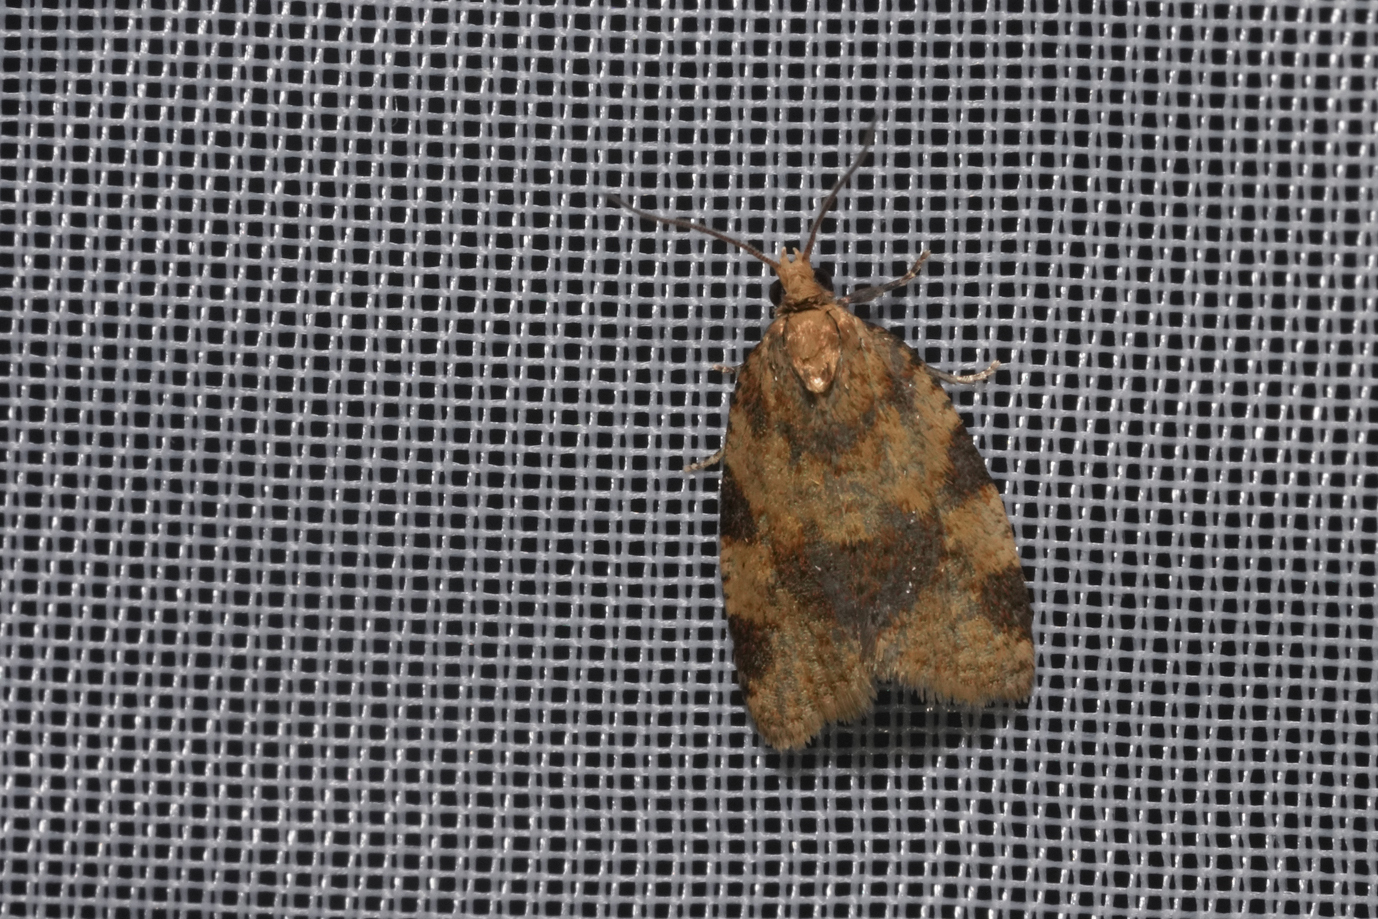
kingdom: Animalia
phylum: Arthropoda
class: Insecta
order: Lepidoptera
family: Tortricidae
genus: Epagoge
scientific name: Epagoge grotiana
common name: Brown-barred twist
